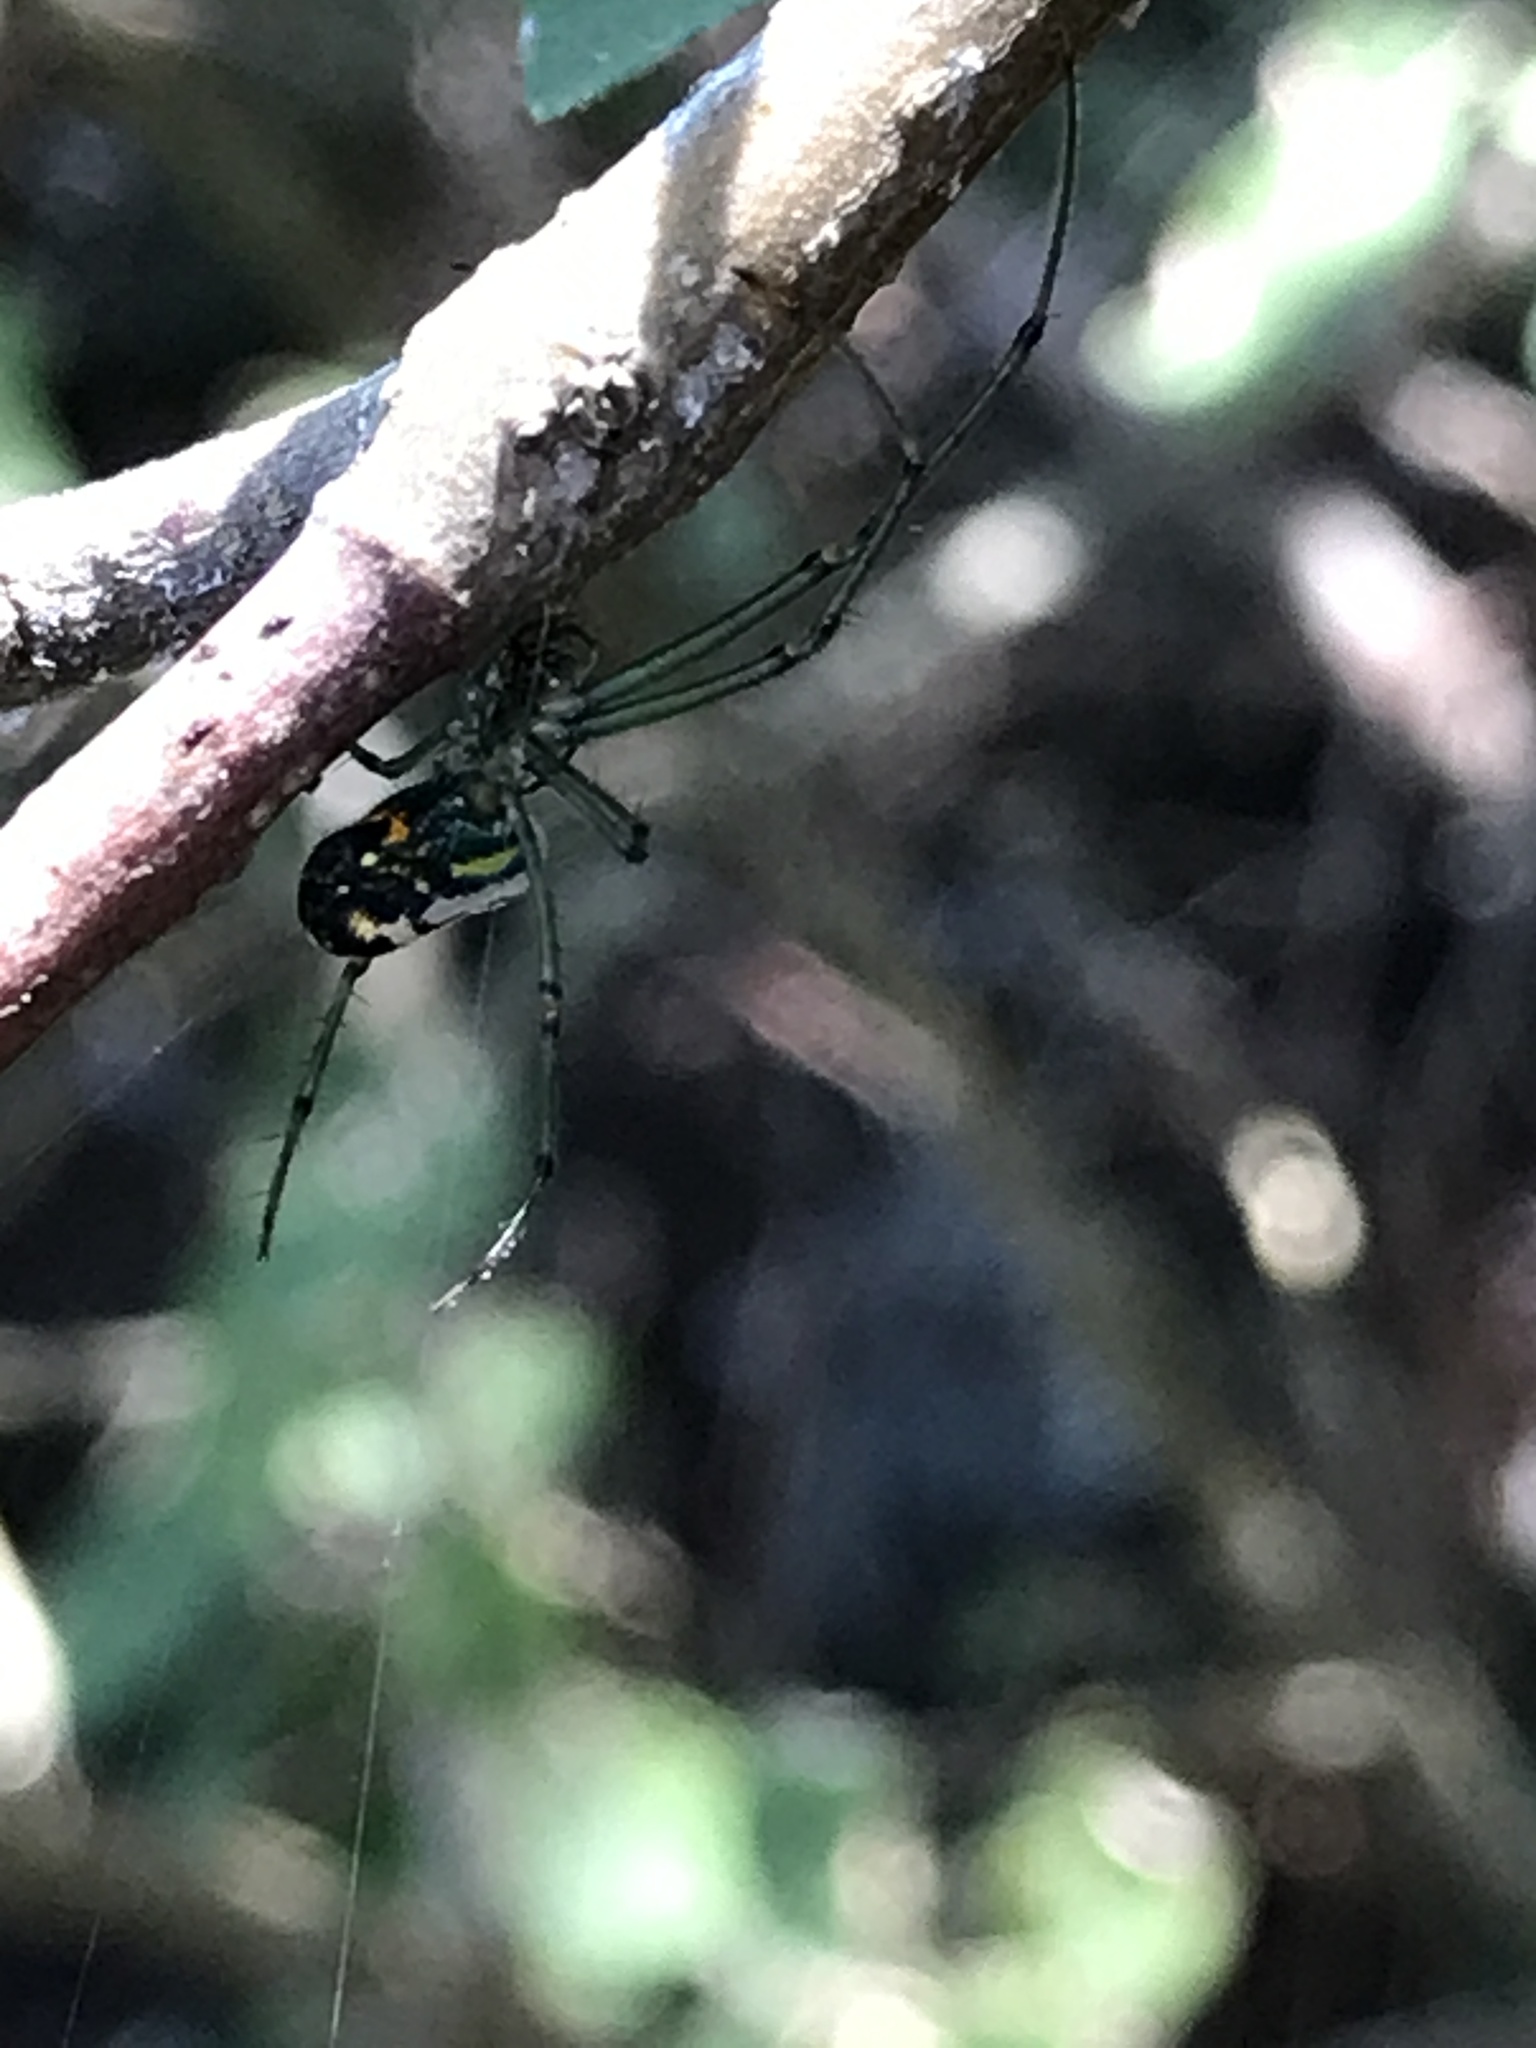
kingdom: Animalia
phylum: Arthropoda
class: Arachnida
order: Araneae
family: Tetragnathidae
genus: Leucauge
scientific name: Leucauge venusta
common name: Longjawed orb weavers
